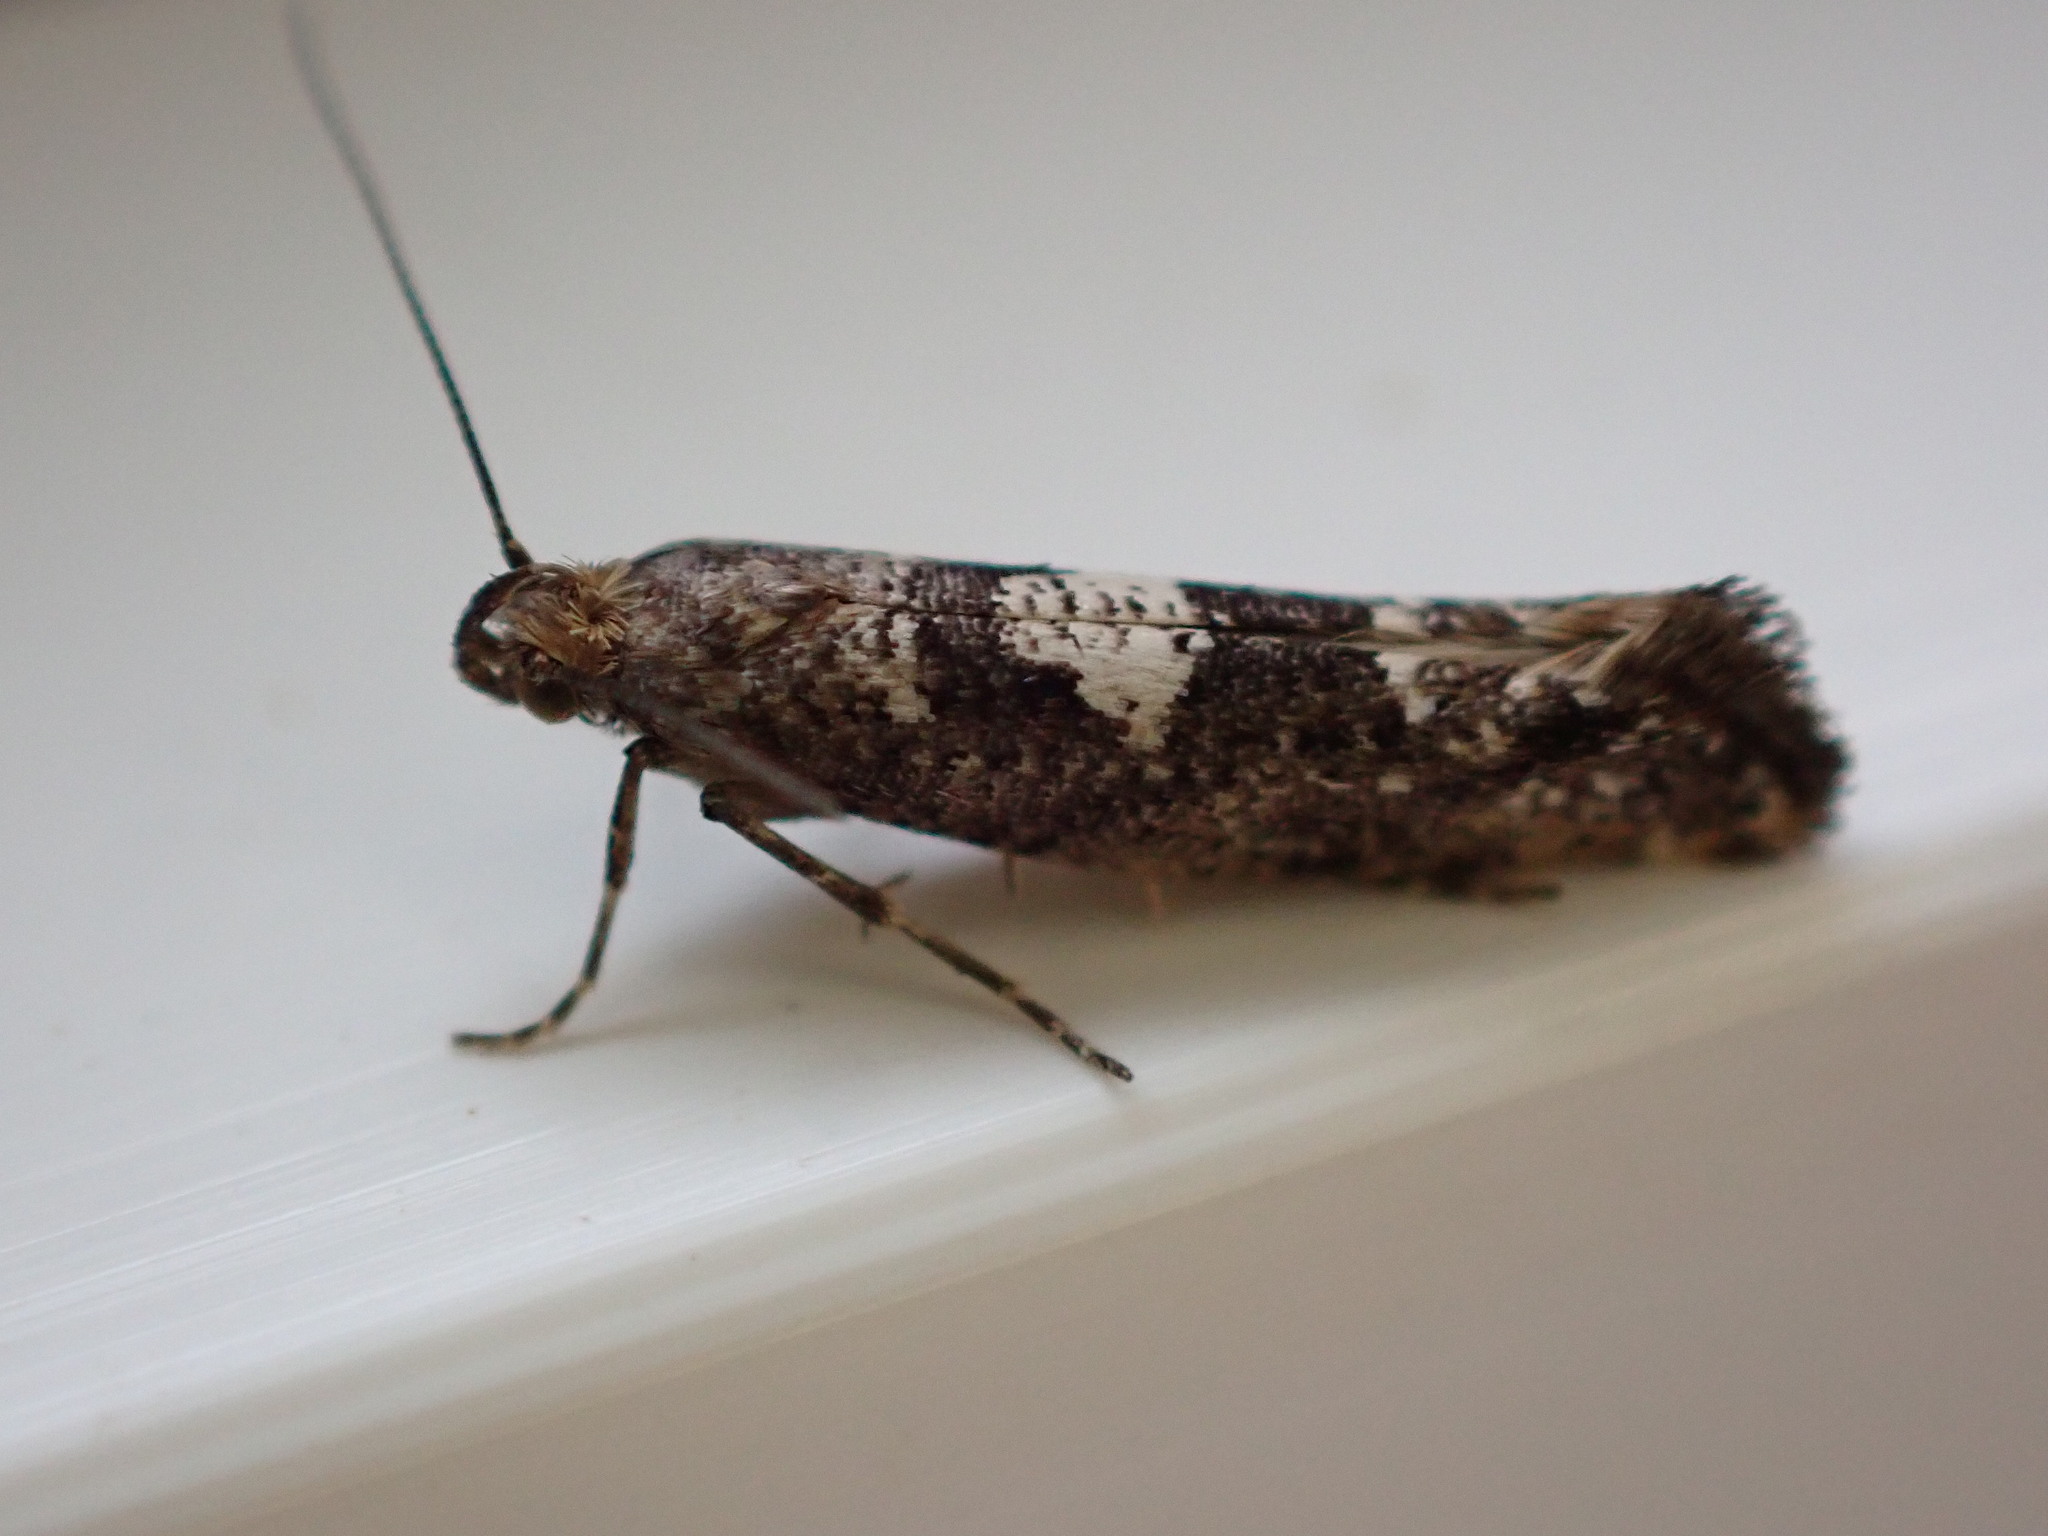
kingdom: Animalia
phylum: Arthropoda
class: Insecta
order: Lepidoptera
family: Glyphipterigidae
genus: Acrolepia
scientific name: Acrolepia assectella
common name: Onion leaf miner
